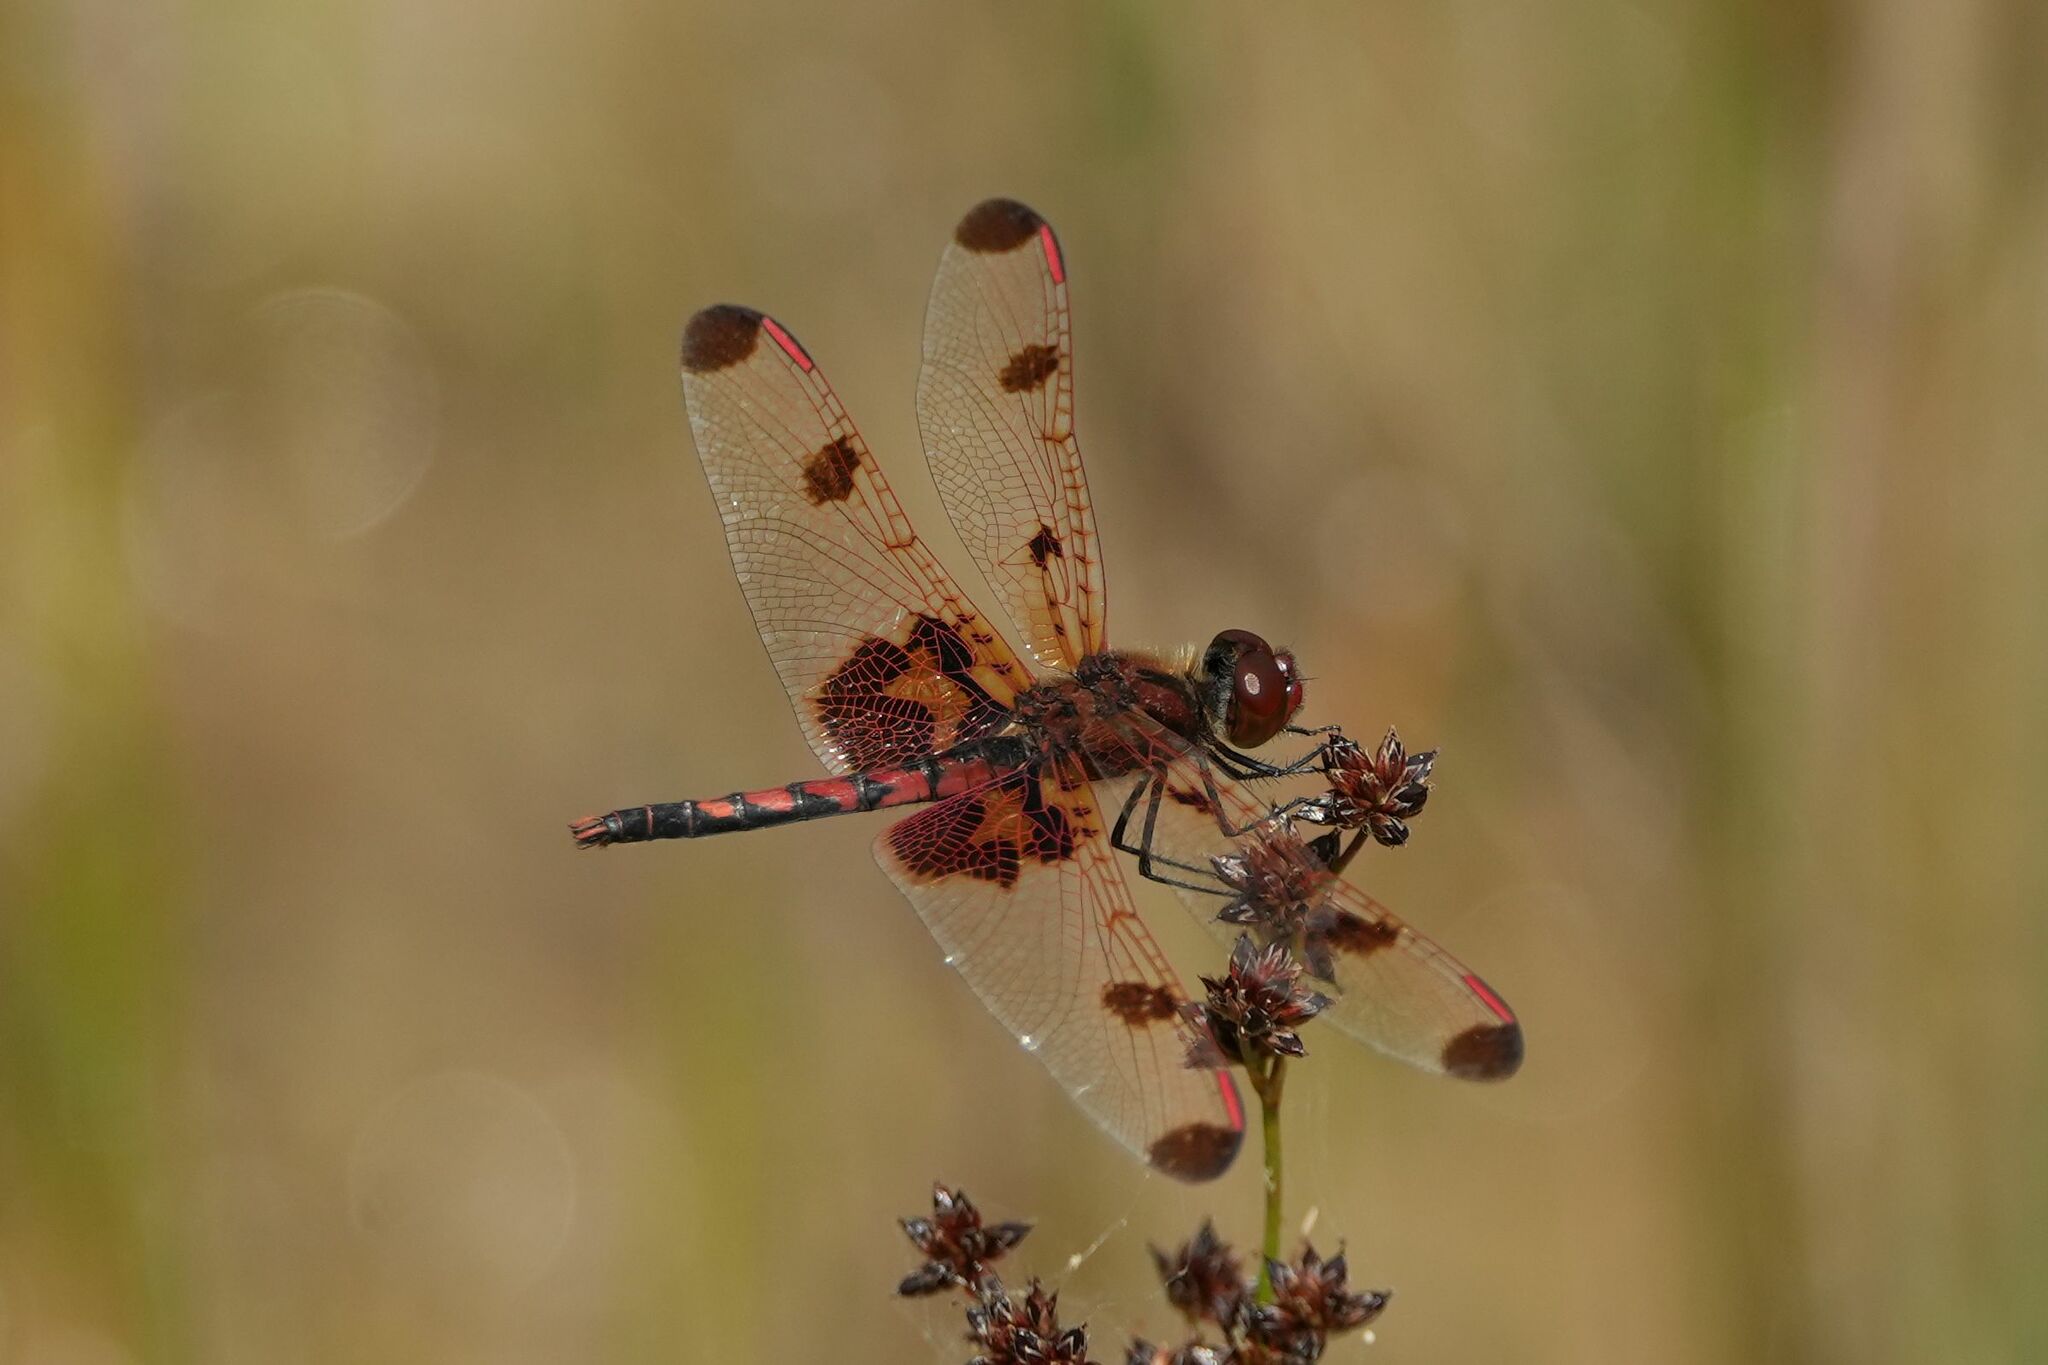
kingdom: Animalia
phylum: Arthropoda
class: Insecta
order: Odonata
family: Libellulidae
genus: Celithemis
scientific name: Celithemis elisa
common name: Calico pennant
